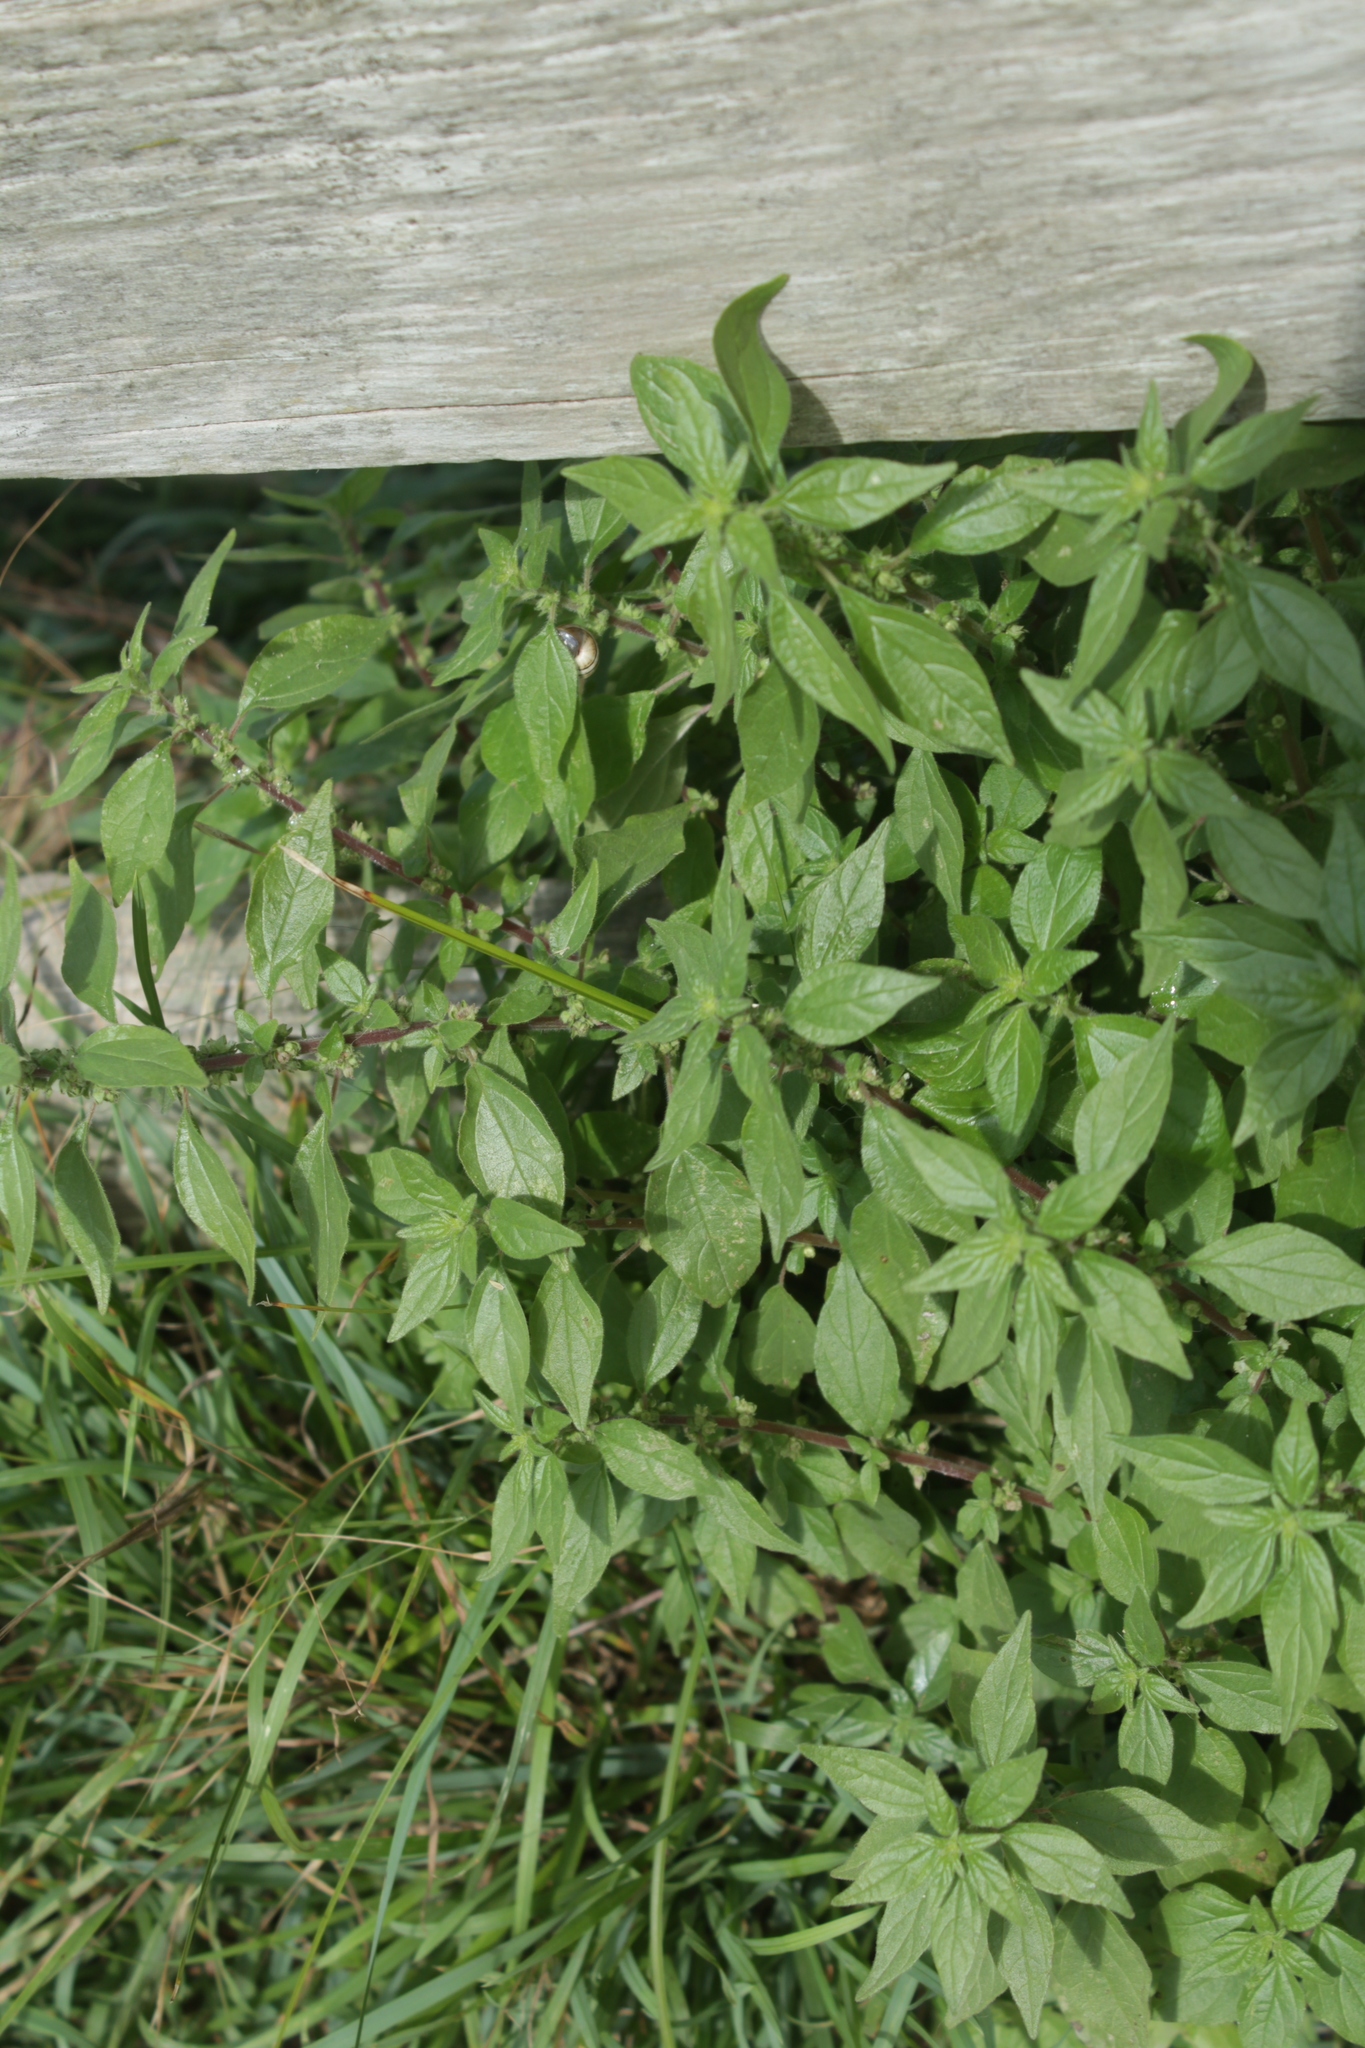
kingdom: Plantae
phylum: Tracheophyta
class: Magnoliopsida
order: Rosales
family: Urticaceae
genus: Parietaria
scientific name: Parietaria judaica
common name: Pellitory-of-the-wall
